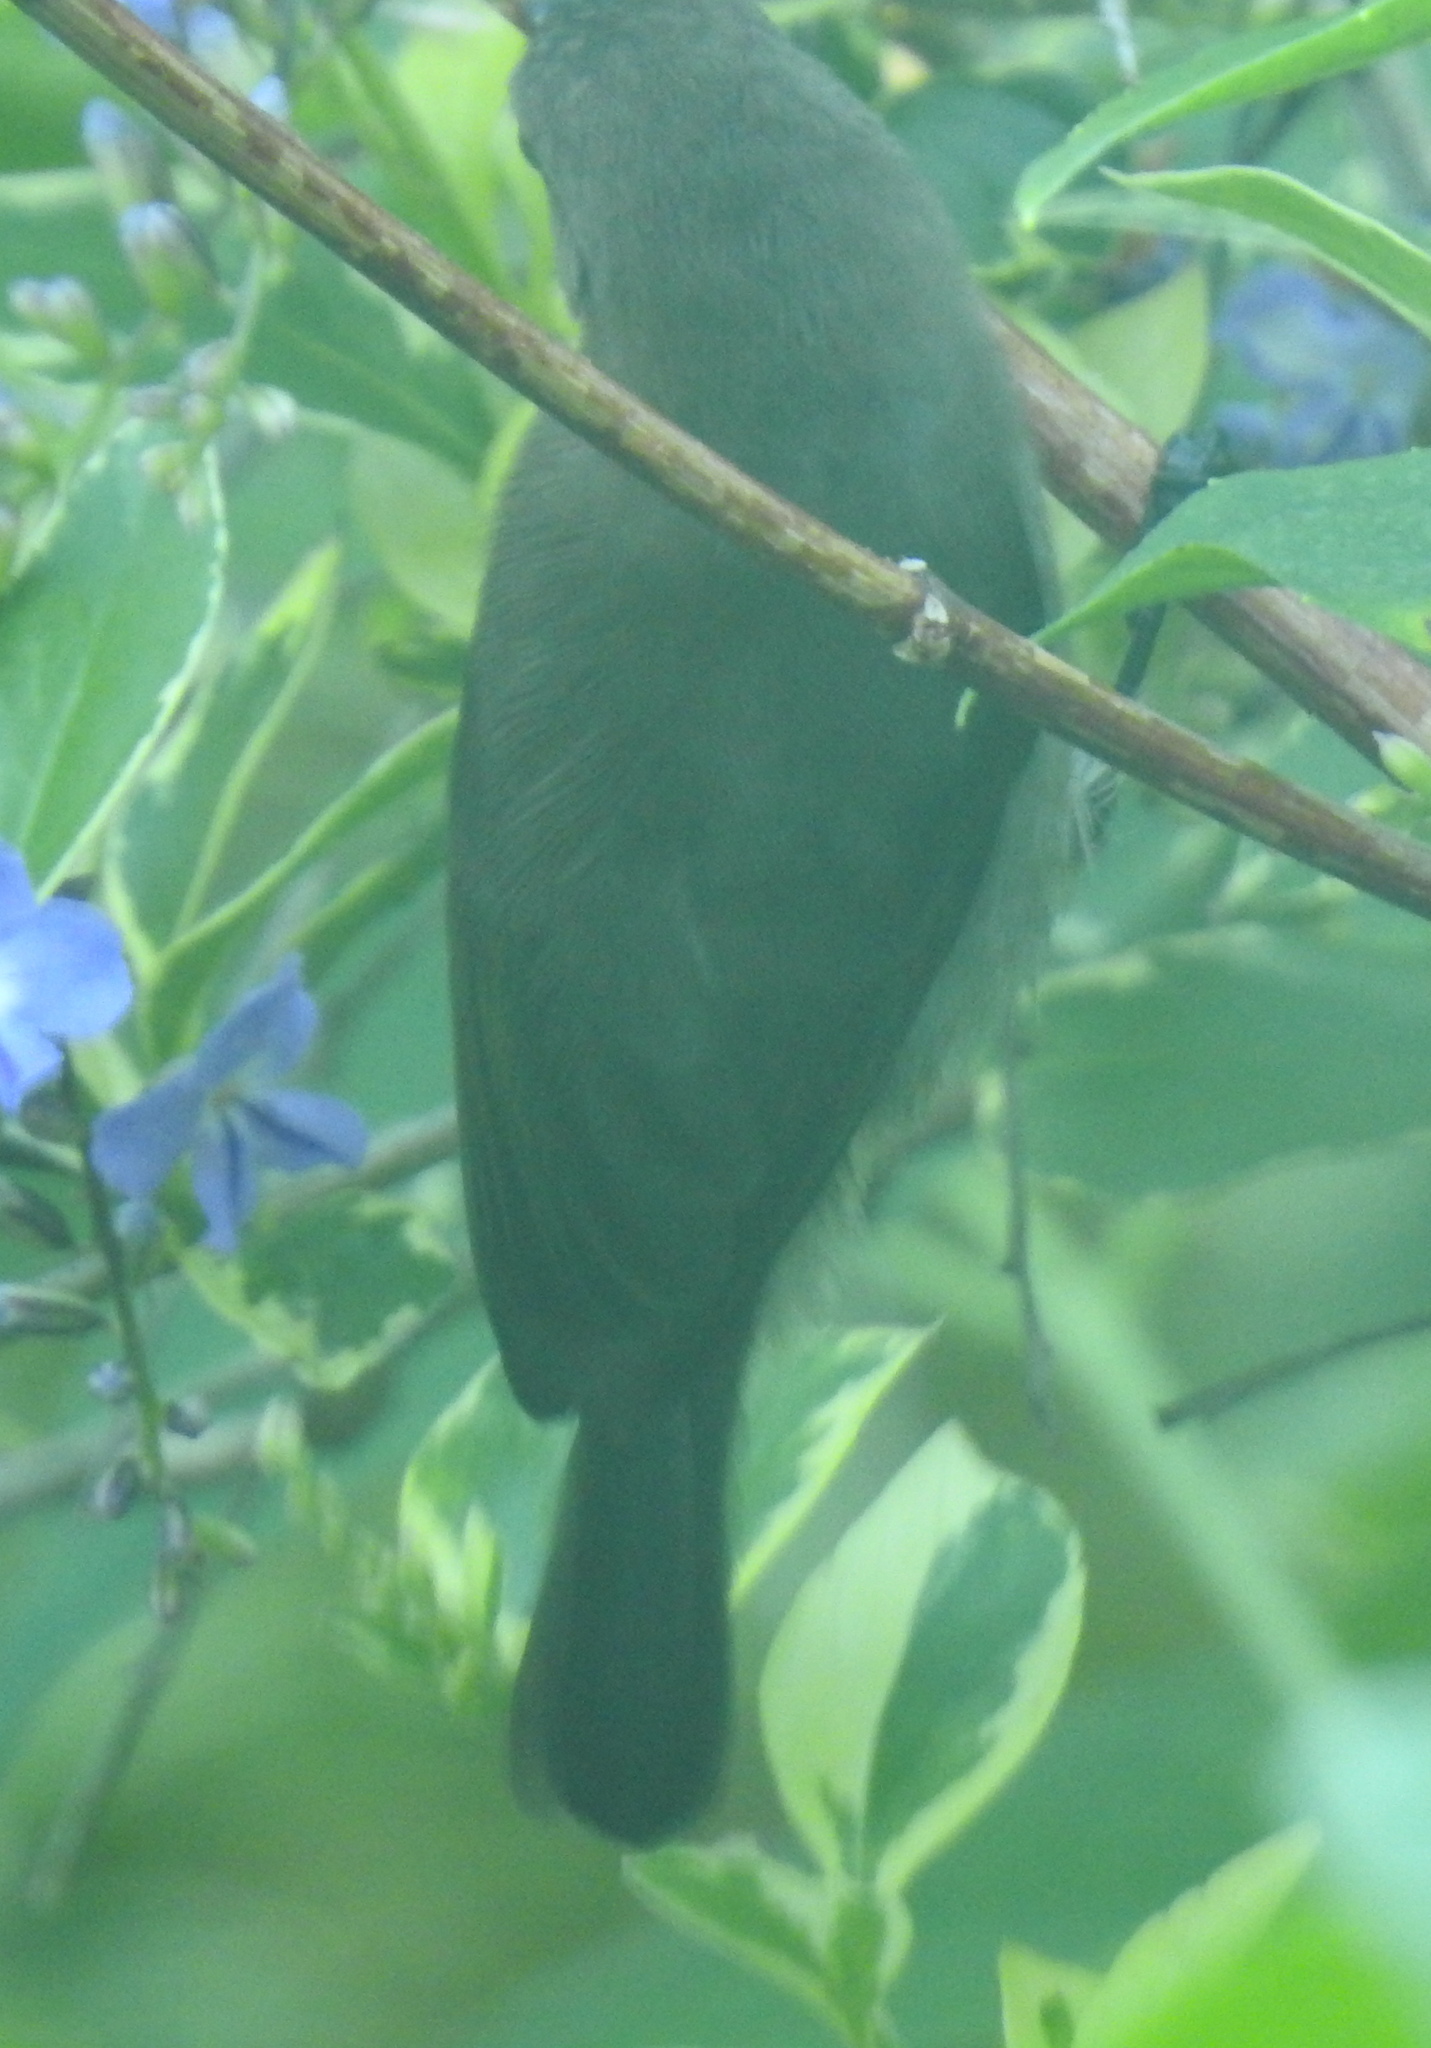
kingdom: Animalia
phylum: Chordata
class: Aves
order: Passeriformes
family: Nectariniidae
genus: Cinnyris
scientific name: Cinnyris chalybeus
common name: Southern double-collared sunbird
